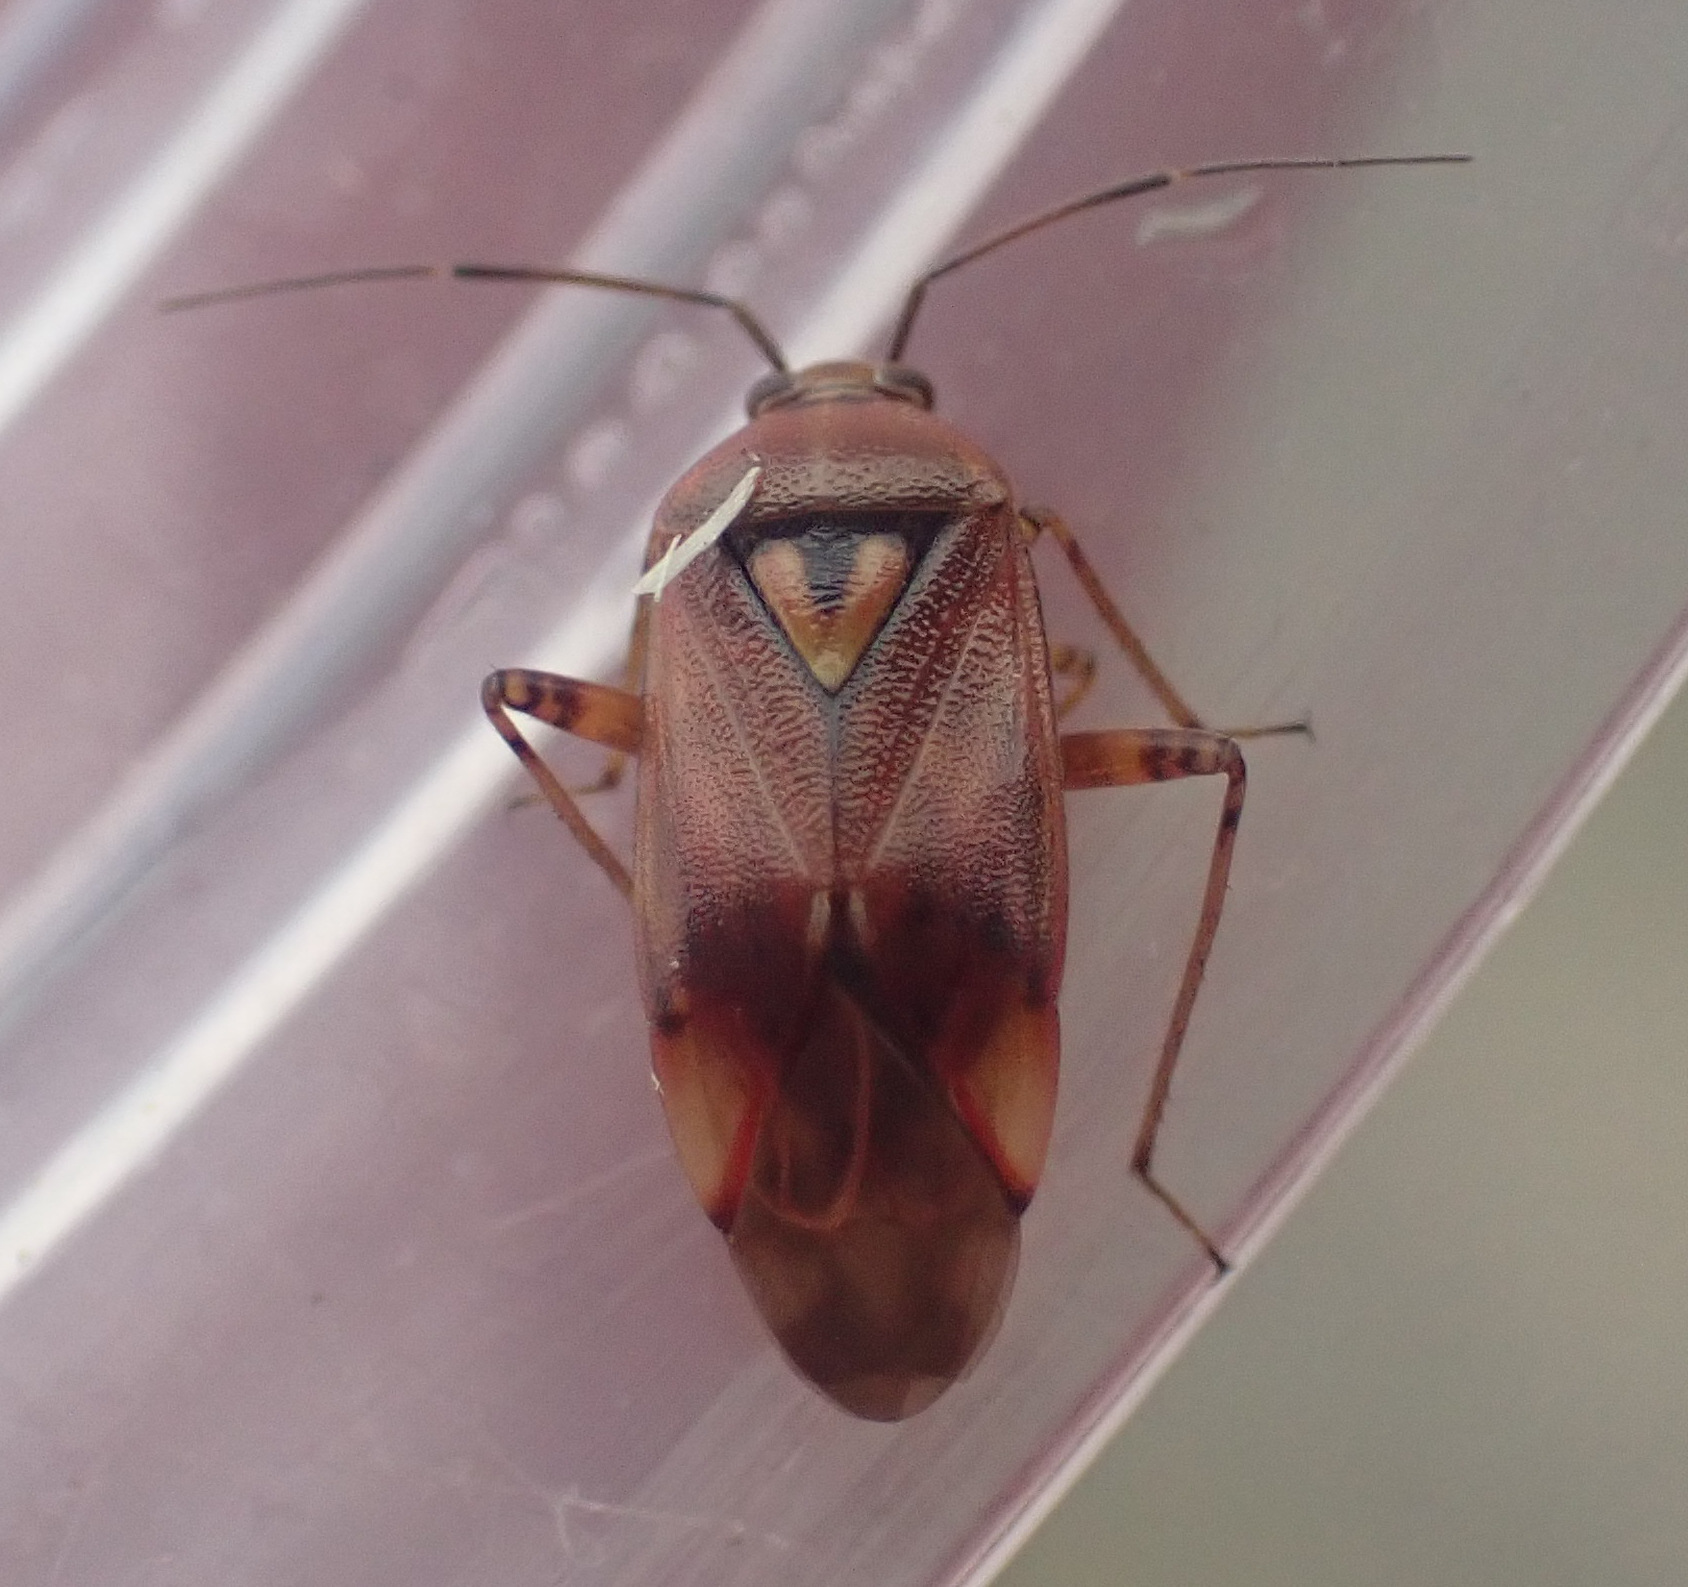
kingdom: Animalia
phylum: Arthropoda
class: Insecta
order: Hemiptera
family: Miridae
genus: Lygus
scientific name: Lygus pratensis
